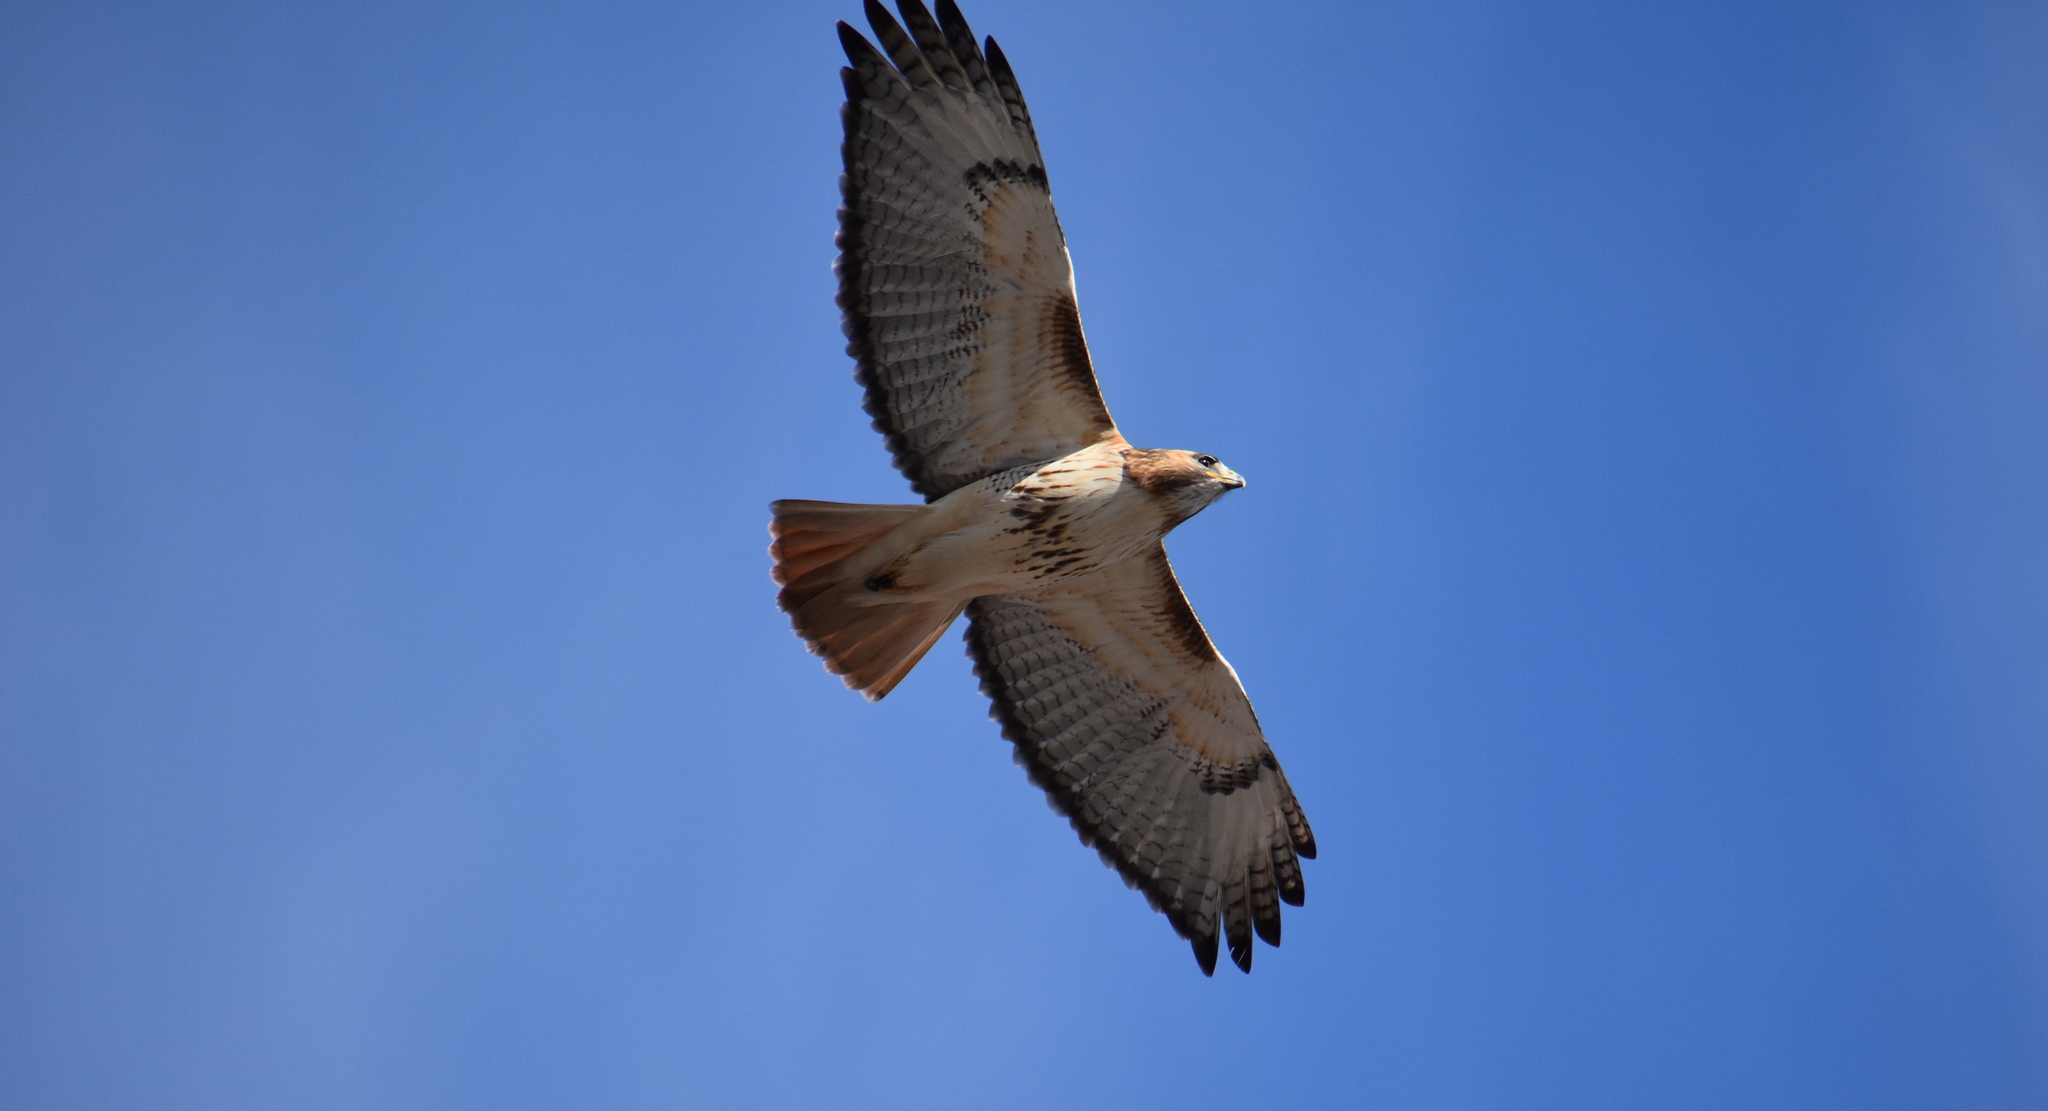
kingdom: Animalia
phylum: Chordata
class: Aves
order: Accipitriformes
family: Accipitridae
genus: Buteo
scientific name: Buteo jamaicensis
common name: Red-tailed hawk
